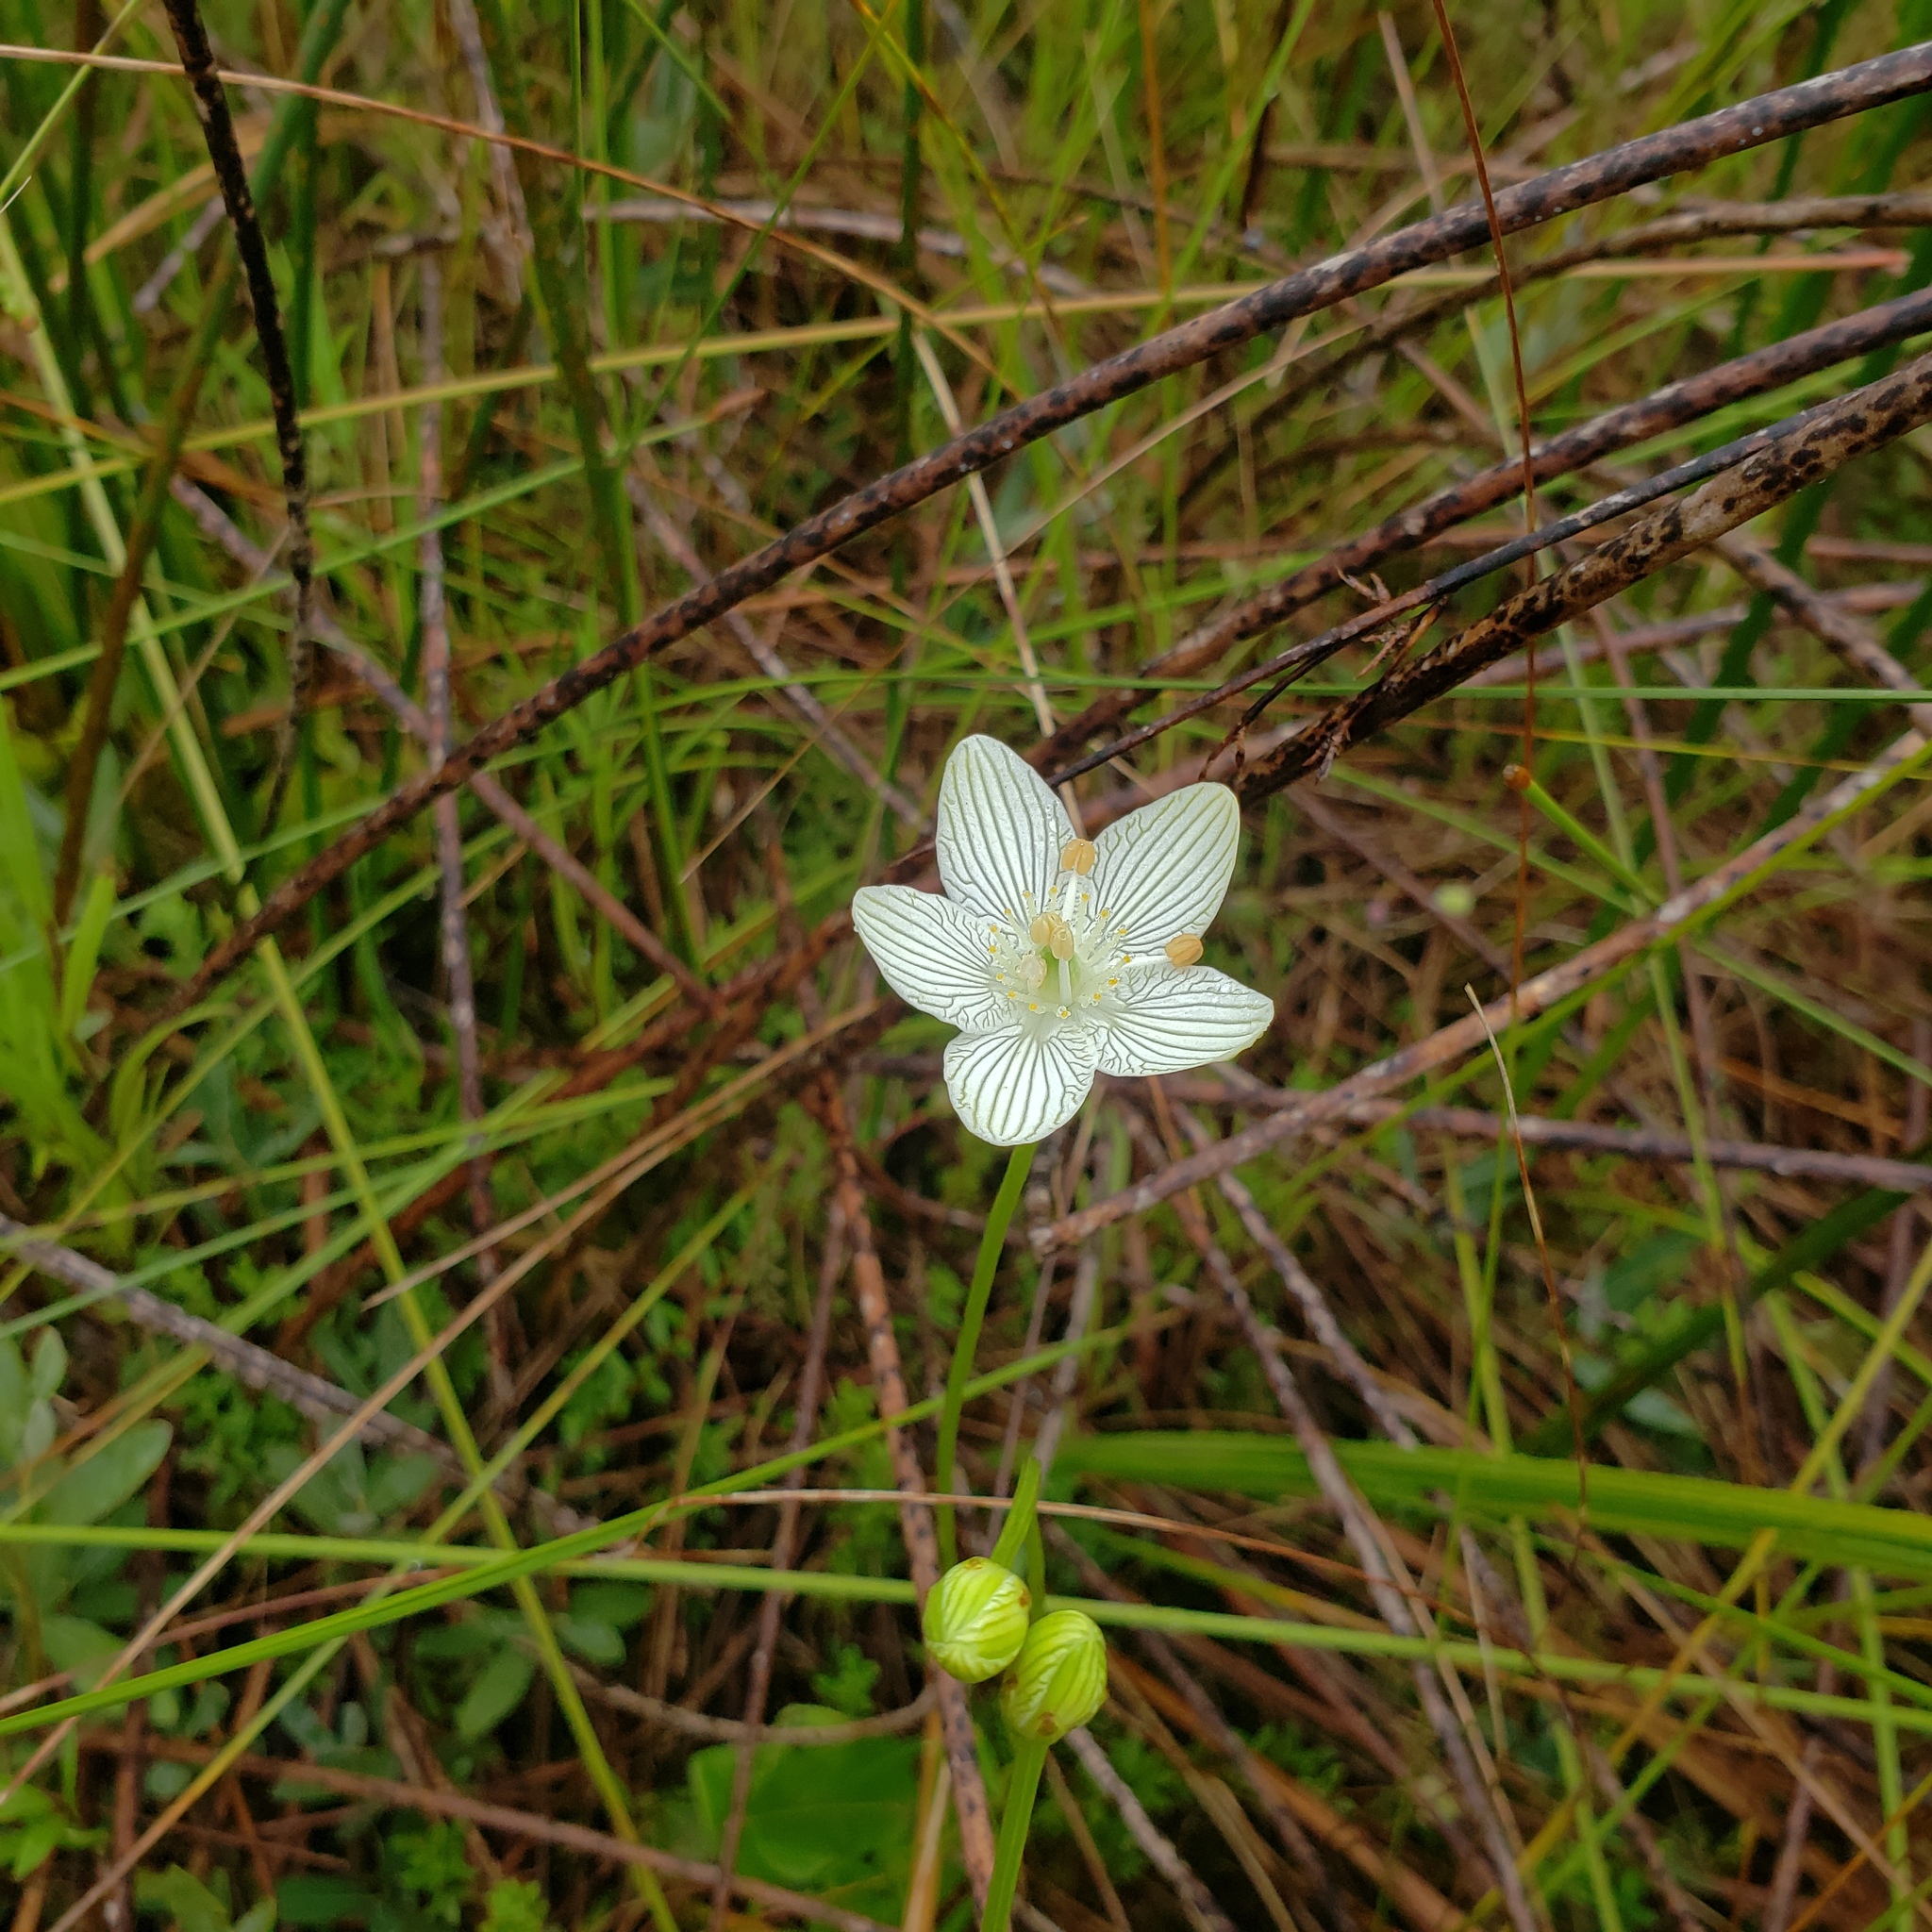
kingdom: Plantae
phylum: Tracheophyta
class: Magnoliopsida
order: Celastrales
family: Parnassiaceae
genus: Parnassia
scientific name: Parnassia glauca
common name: American grass-of-parnassus
